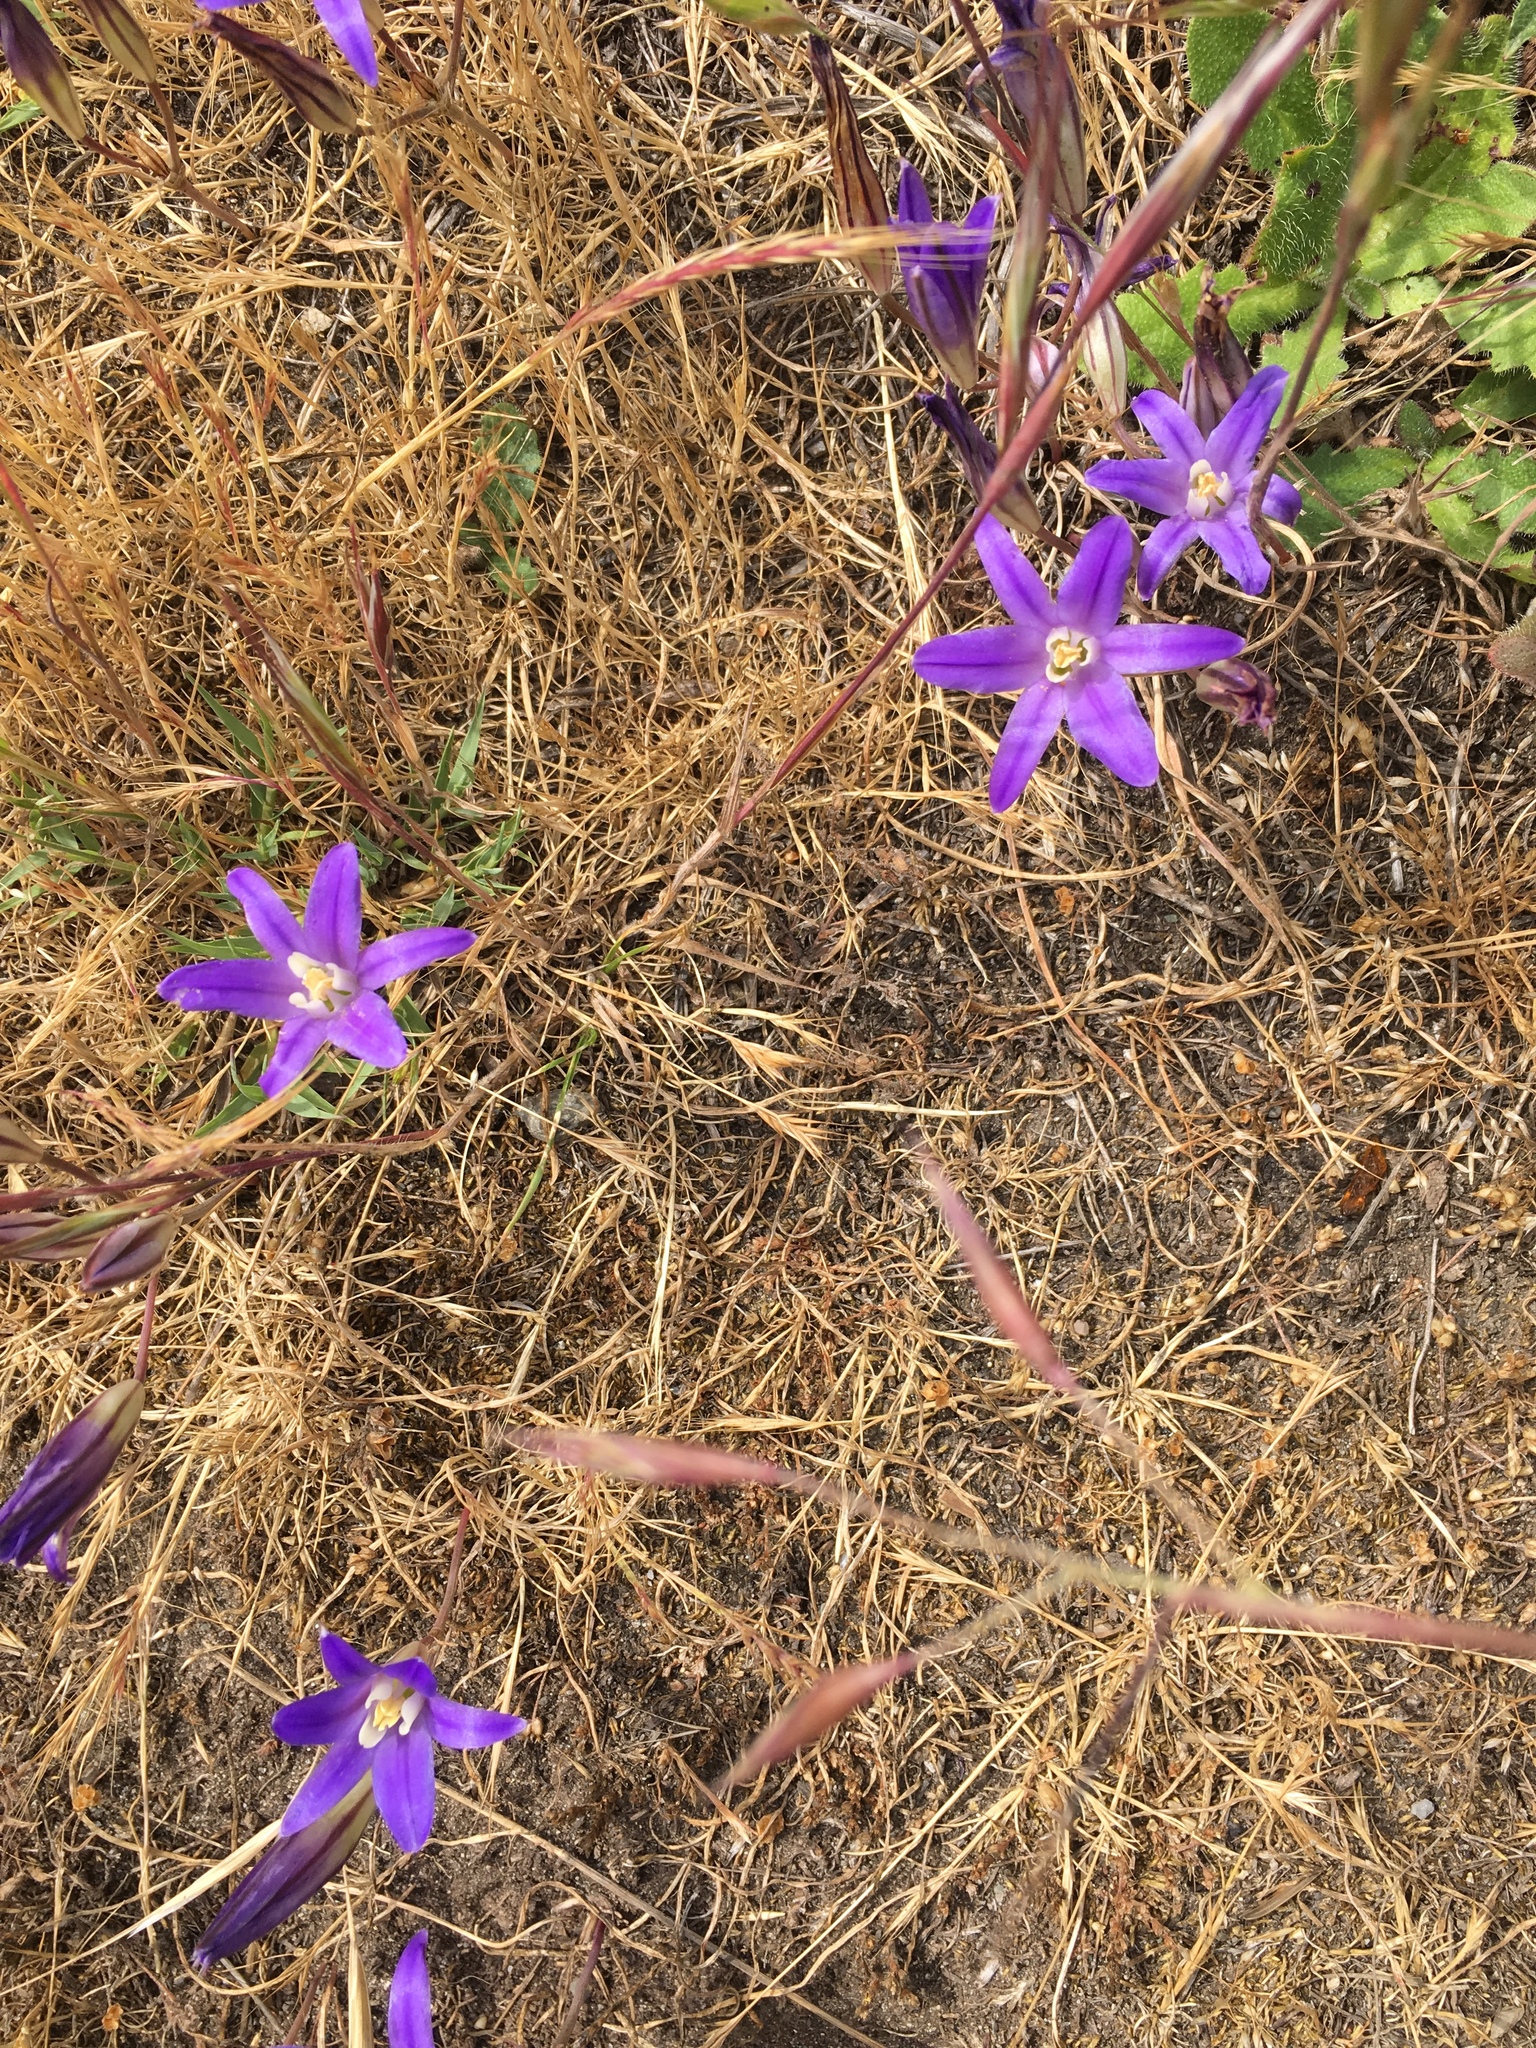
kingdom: Plantae
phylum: Tracheophyta
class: Liliopsida
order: Asparagales
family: Asparagaceae
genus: Brodiaea
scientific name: Brodiaea coronaria
